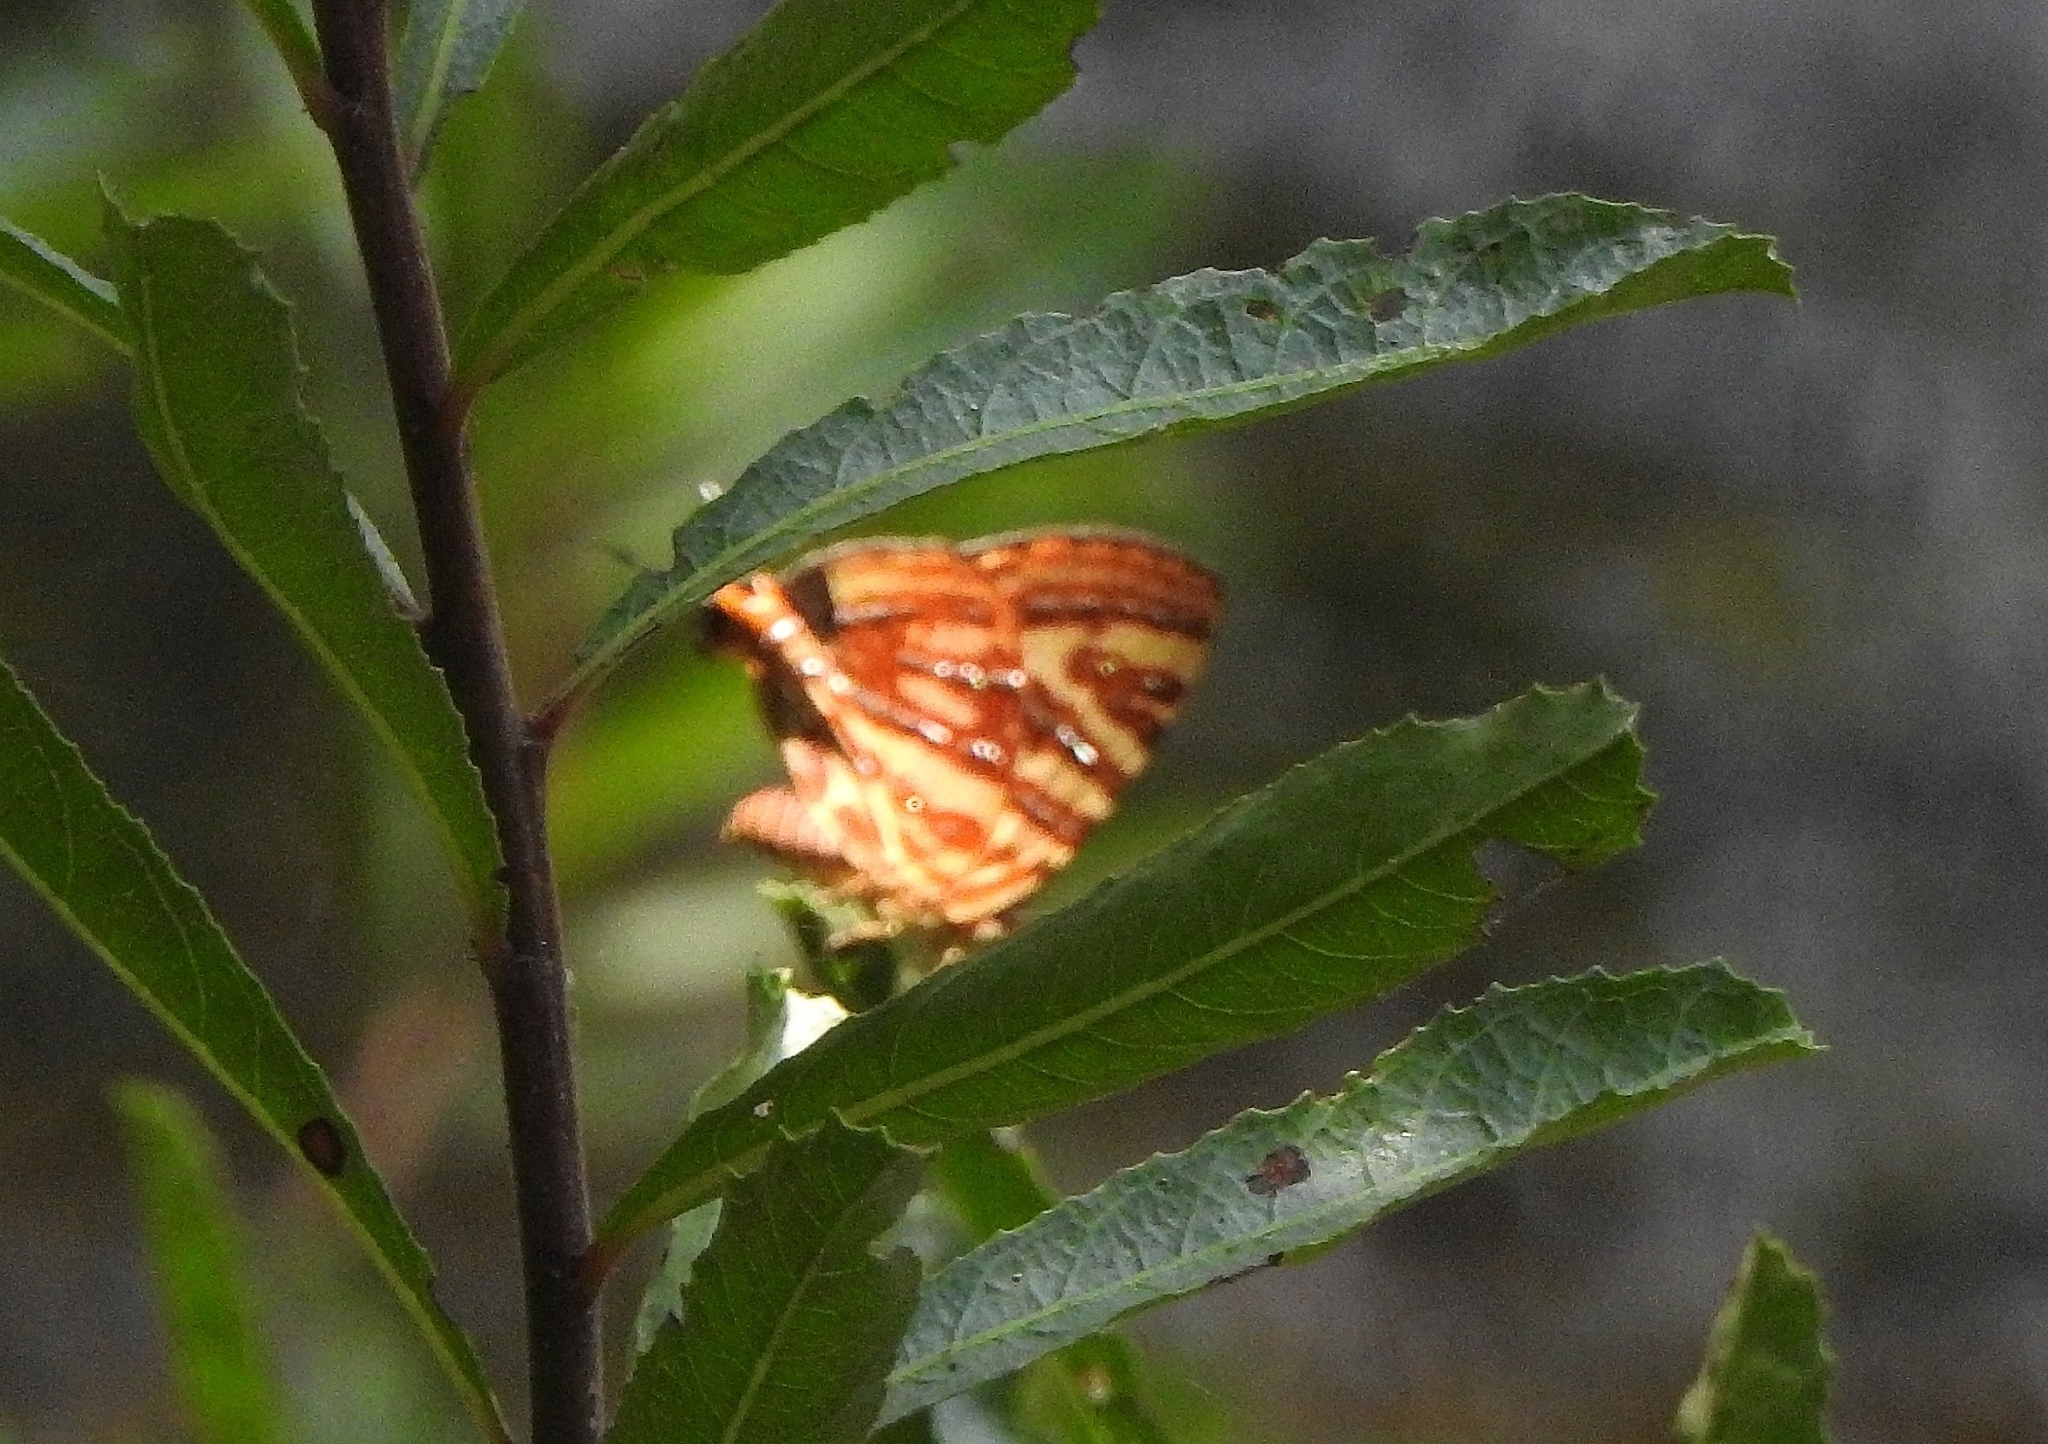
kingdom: Animalia
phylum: Arthropoda
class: Insecta
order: Lepidoptera
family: Lycaenidae
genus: Cigaritis
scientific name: Cigaritis lohita
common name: Long-banded silverline
